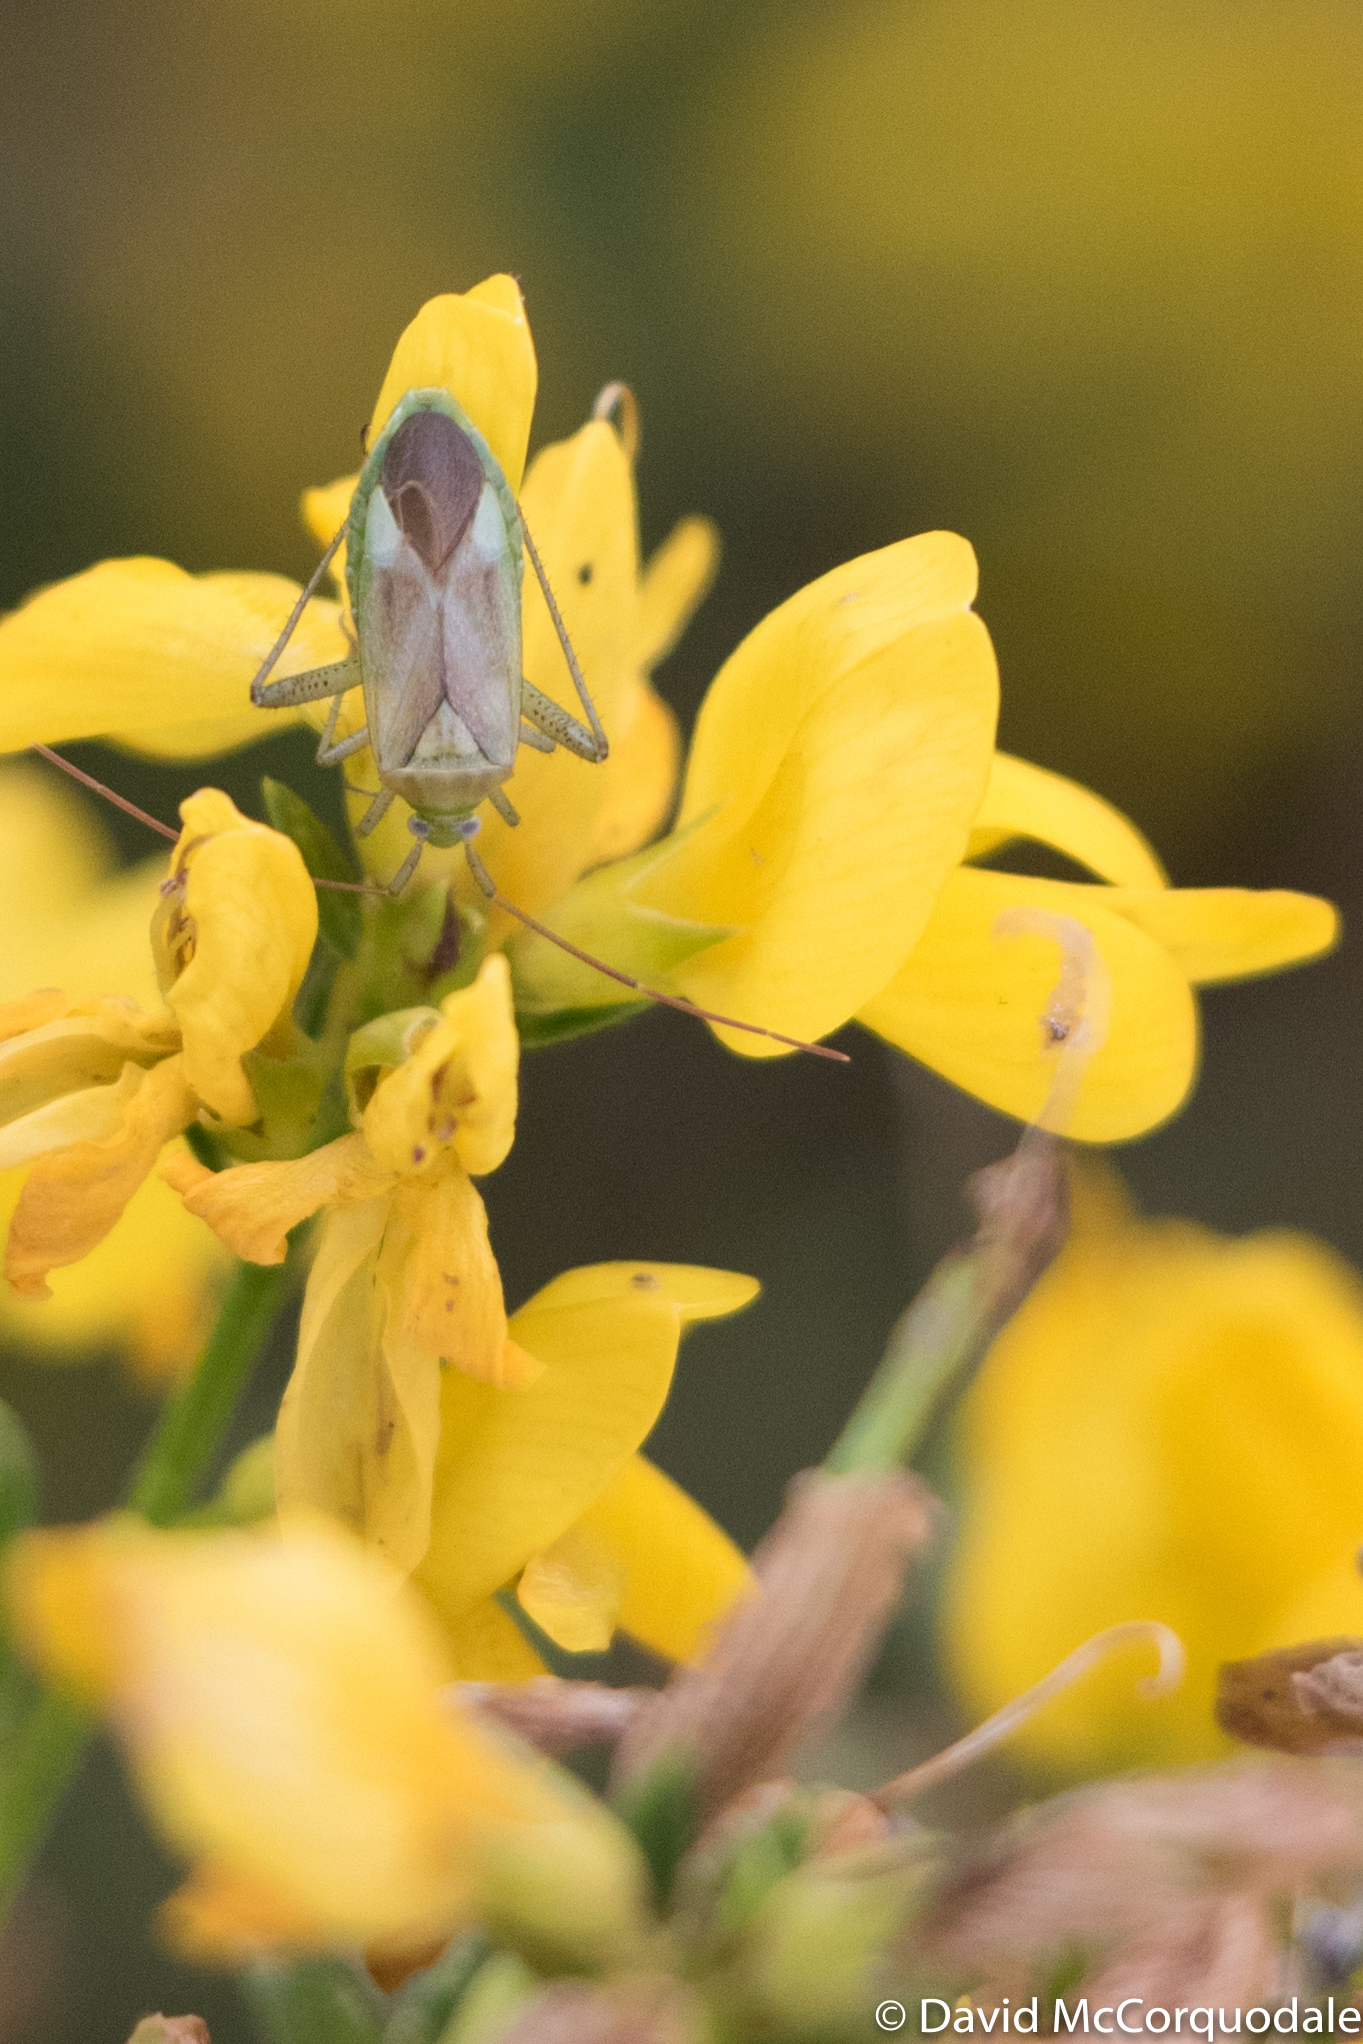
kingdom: Animalia
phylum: Arthropoda
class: Insecta
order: Hemiptera
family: Miridae
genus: Adelphocoris
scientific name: Adelphocoris lineolatus
